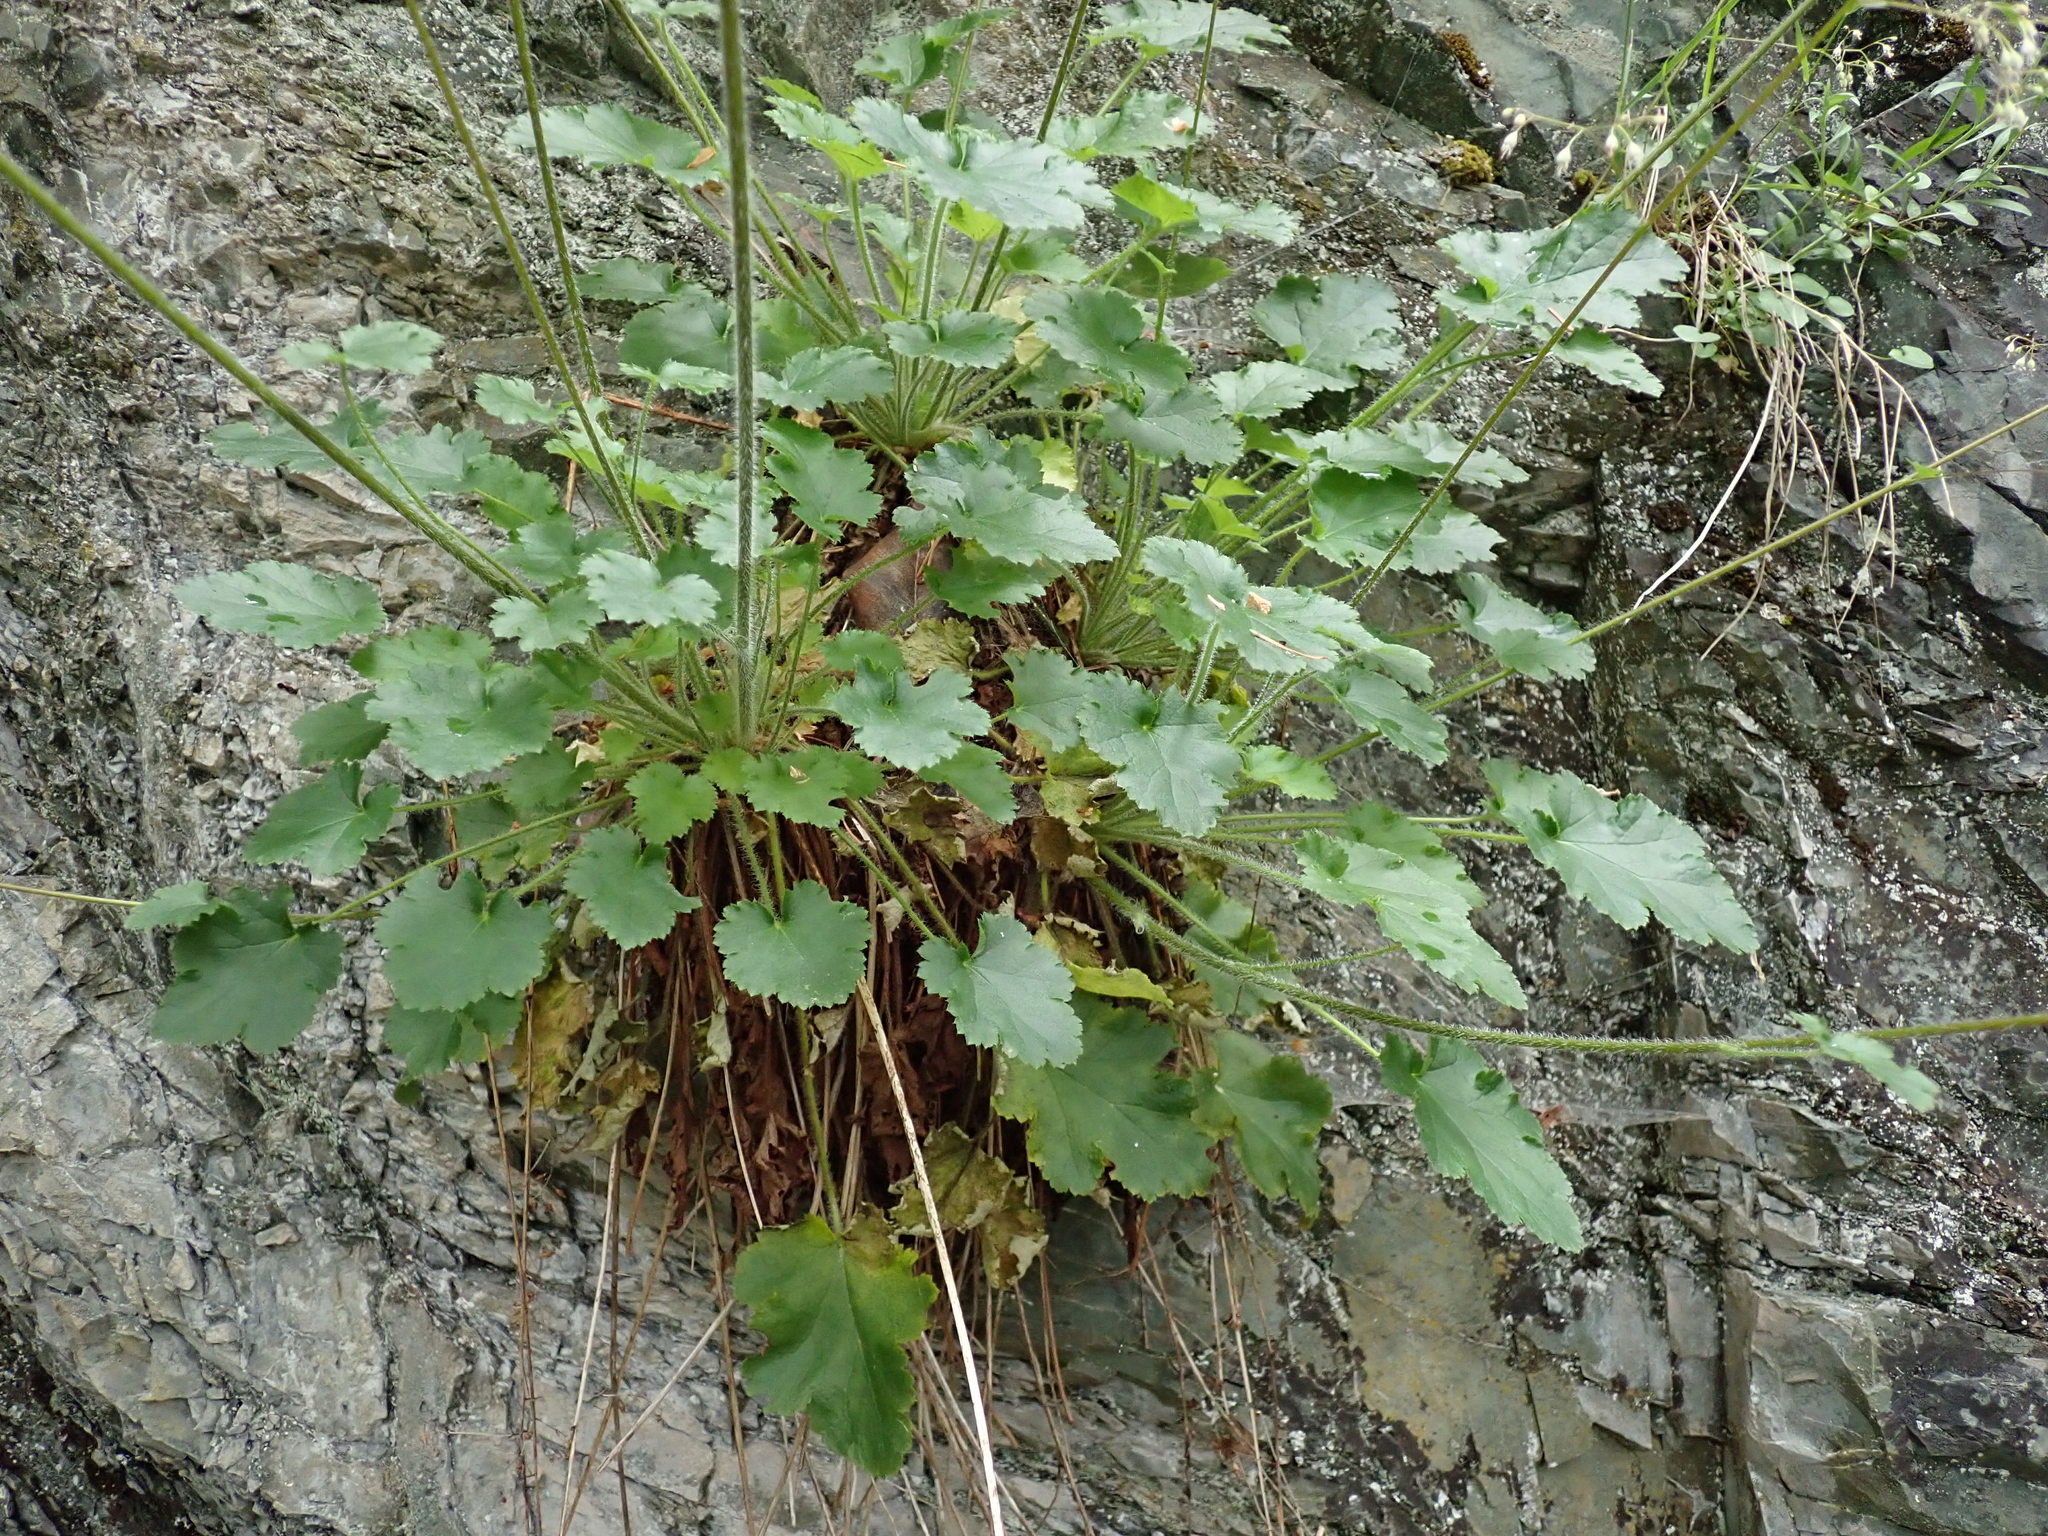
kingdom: Plantae
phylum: Tracheophyta
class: Magnoliopsida
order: Saxifragales
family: Saxifragaceae
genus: Heuchera
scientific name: Heuchera micrantha
